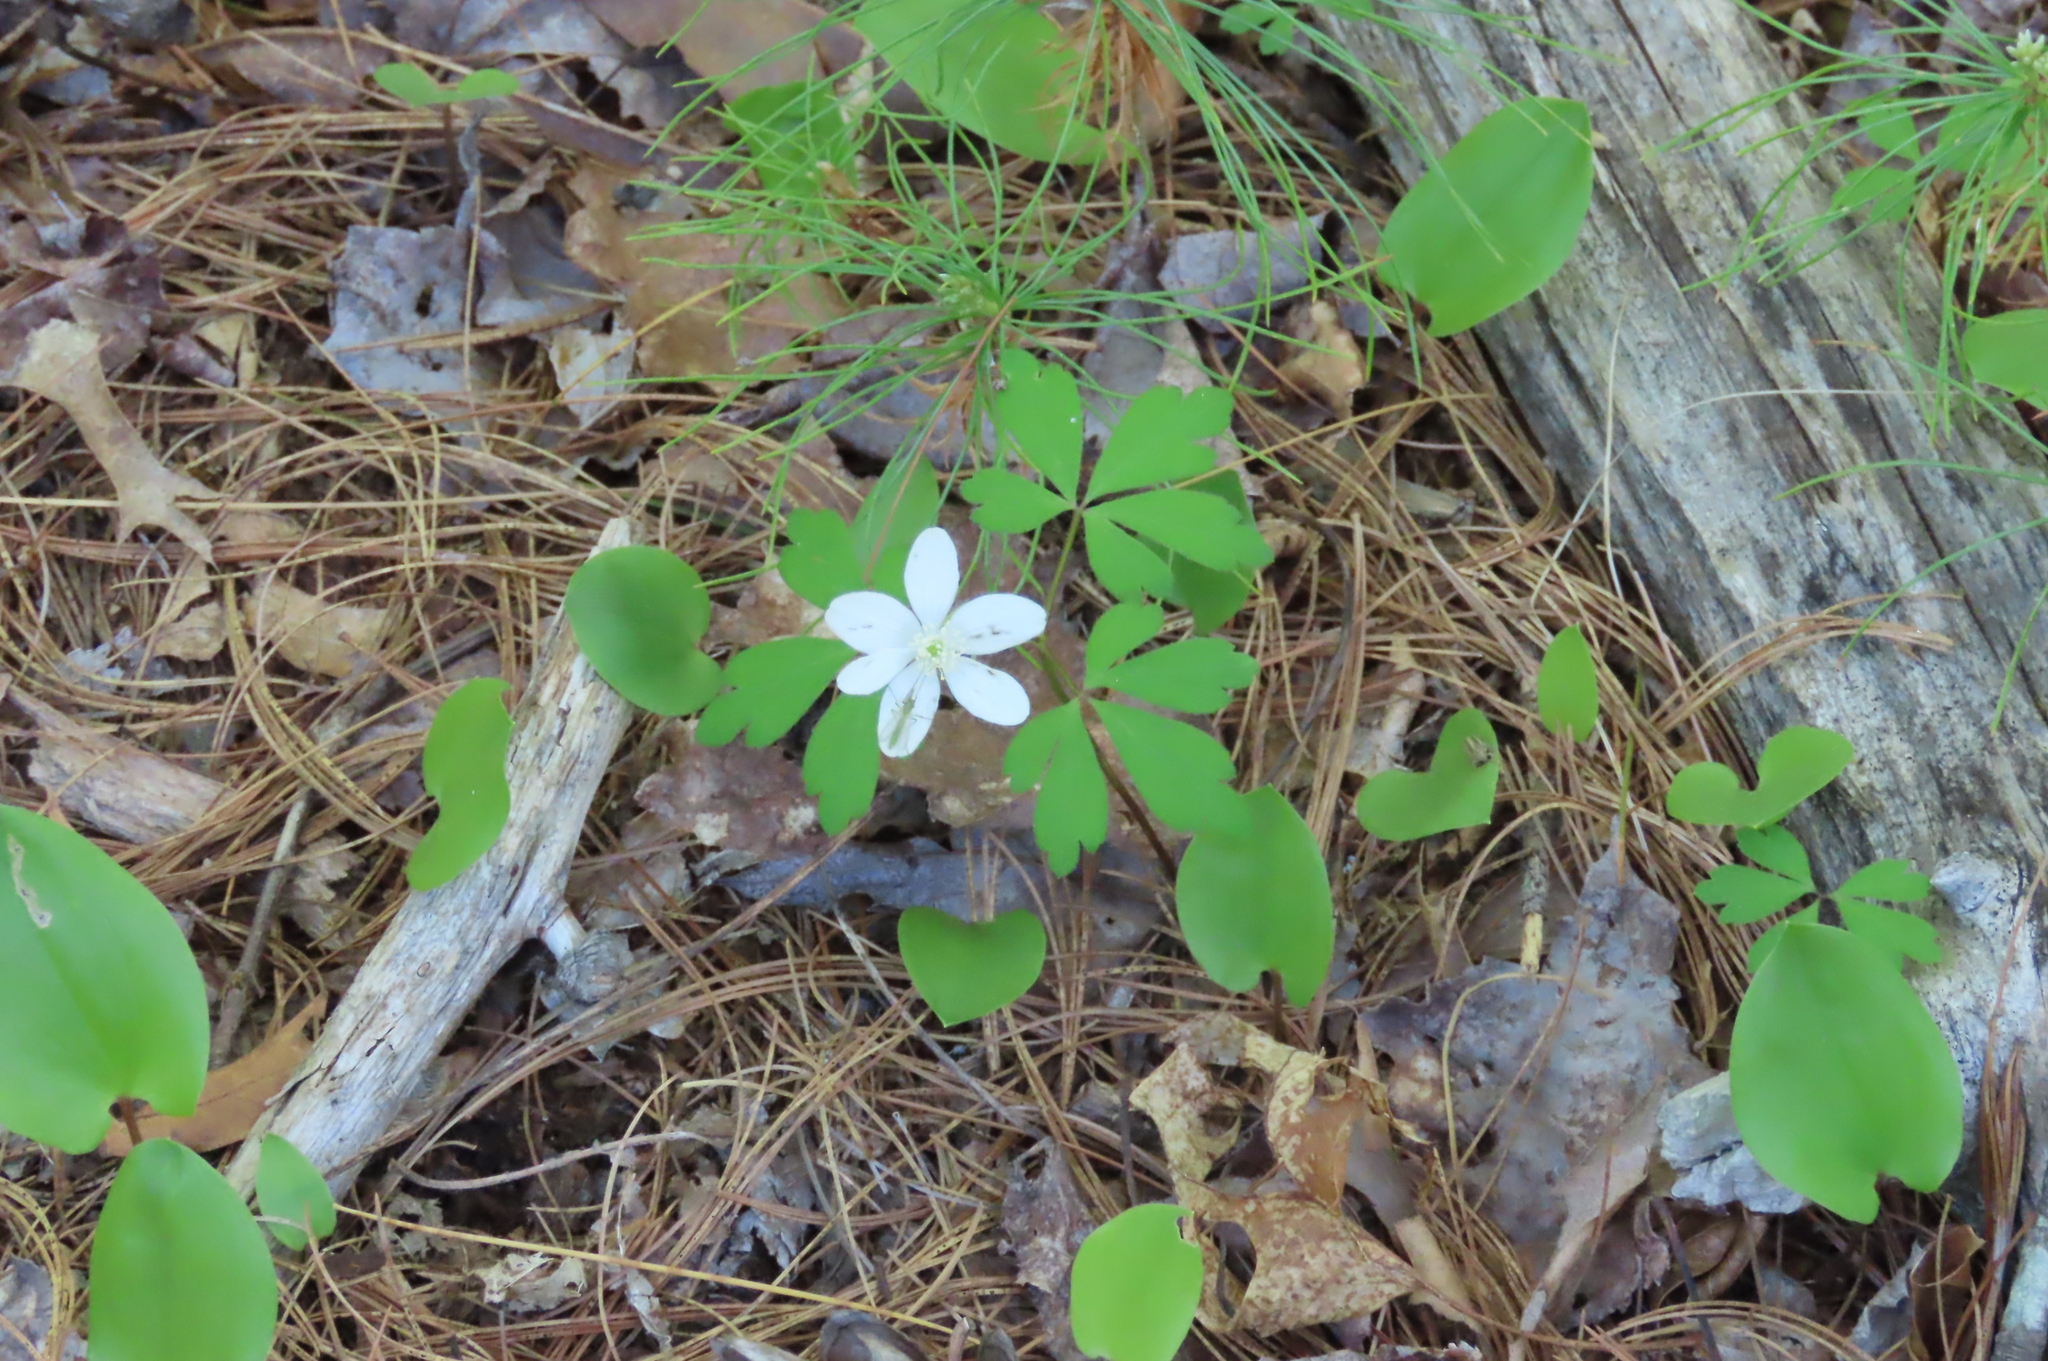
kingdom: Plantae
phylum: Tracheophyta
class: Magnoliopsida
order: Ranunculales
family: Ranunculaceae
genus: Anemone
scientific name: Anemone quinquefolia
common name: Wood anemone
